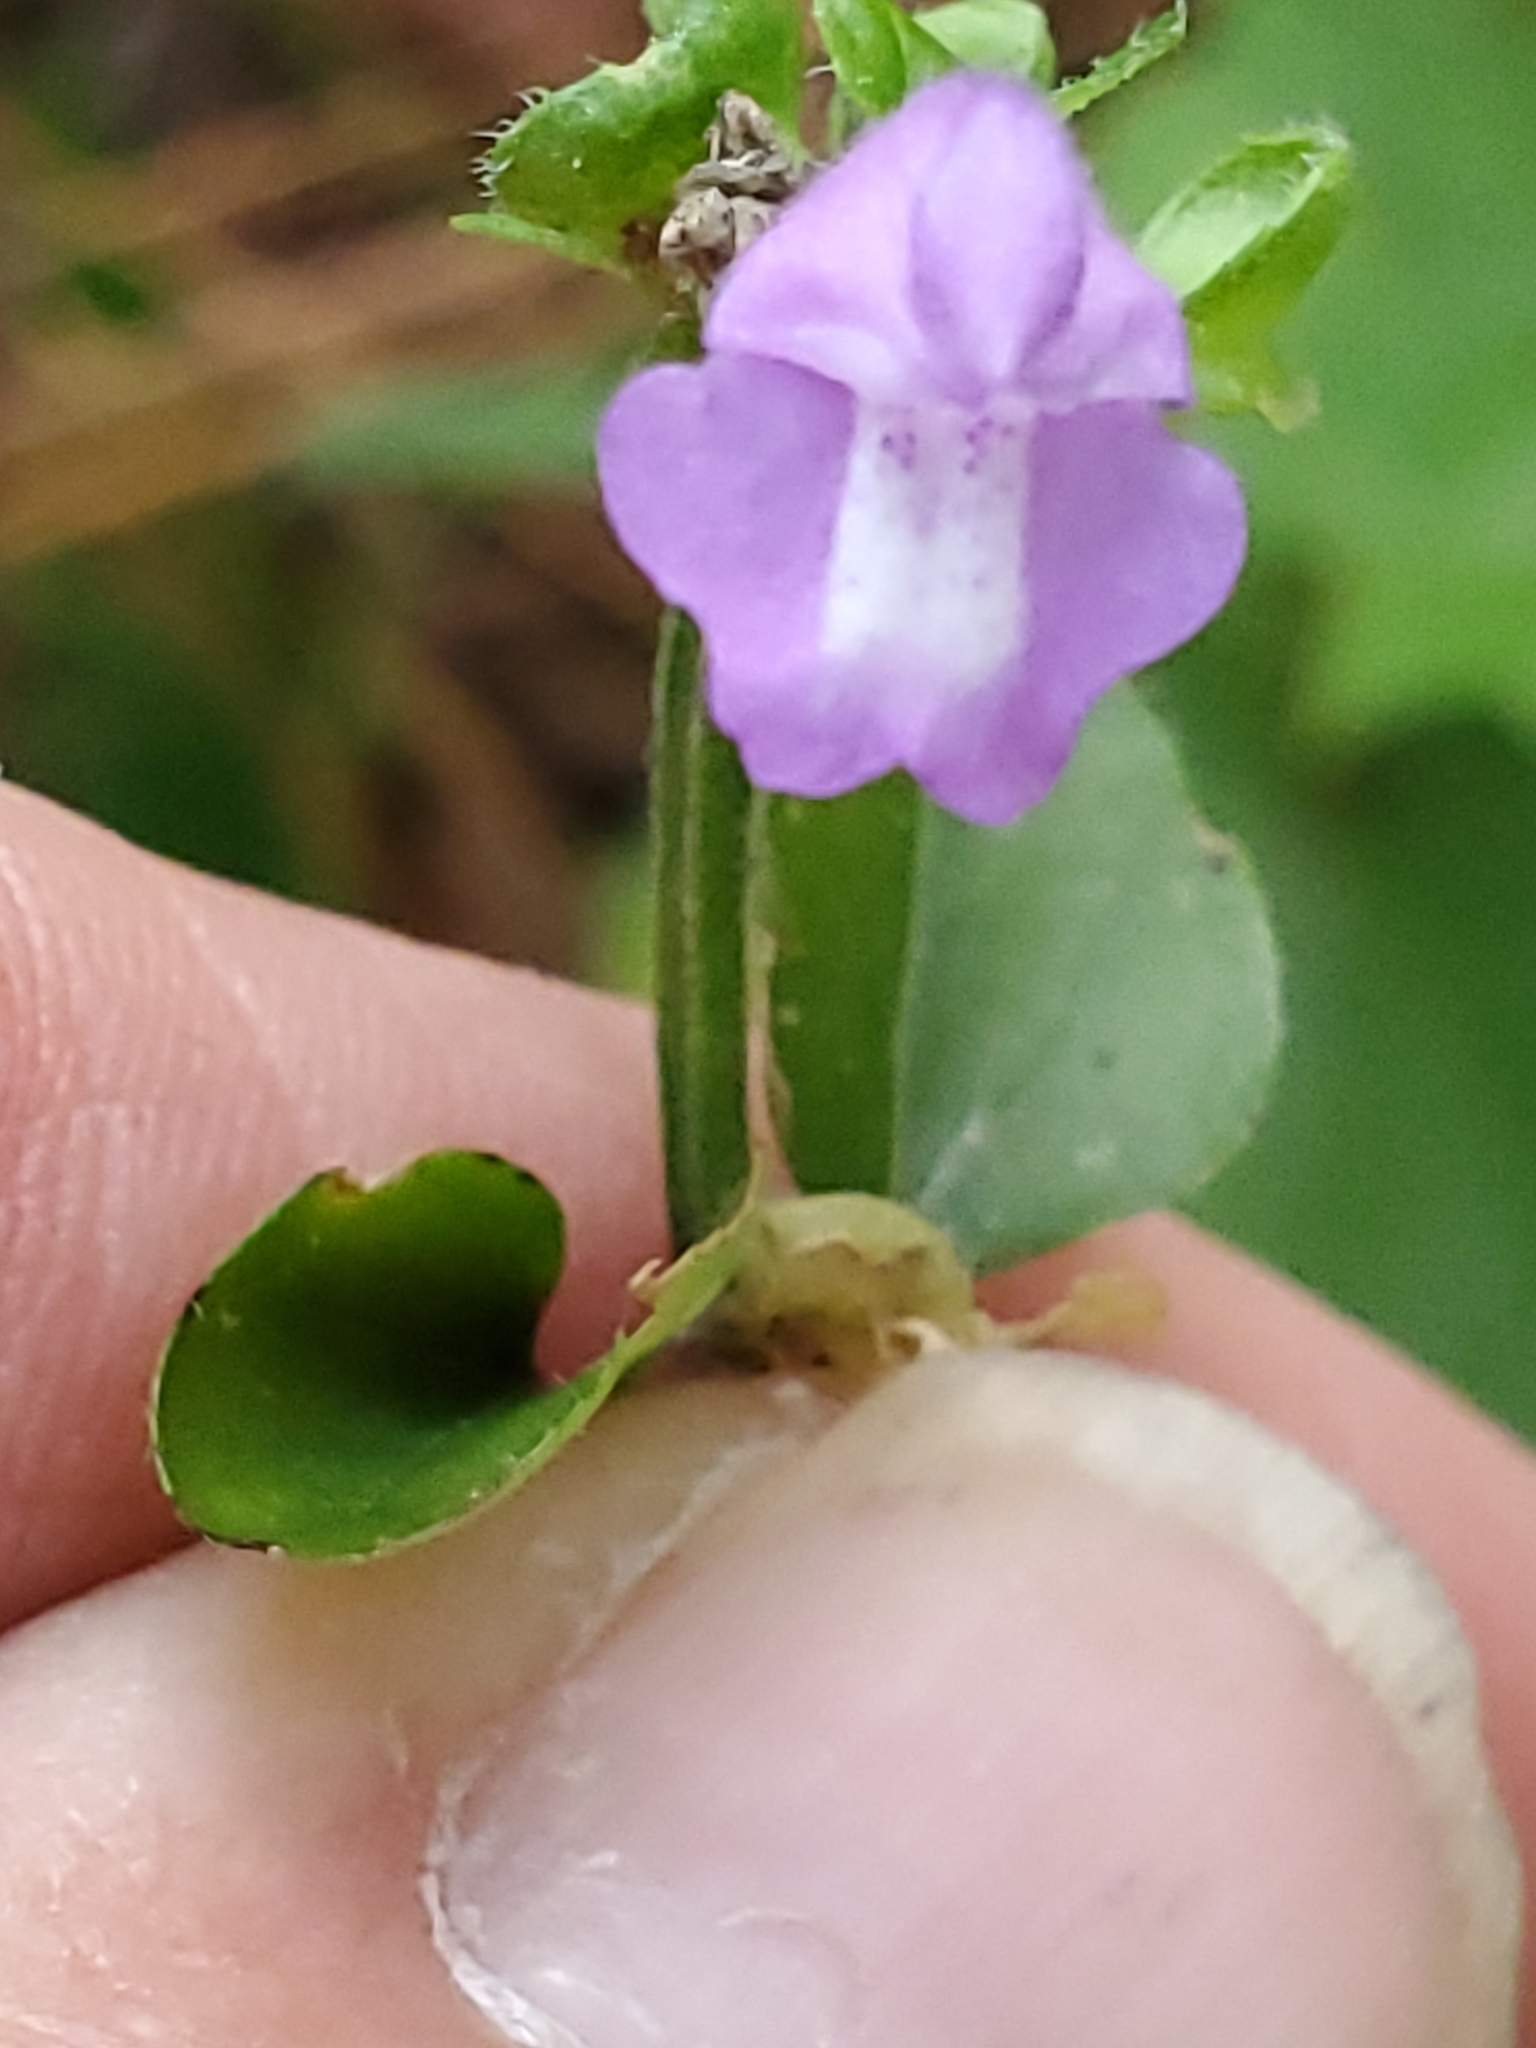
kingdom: Plantae
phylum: Tracheophyta
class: Magnoliopsida
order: Lamiales
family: Lamiaceae
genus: Scutellaria
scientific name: Scutellaria cardiophylla
